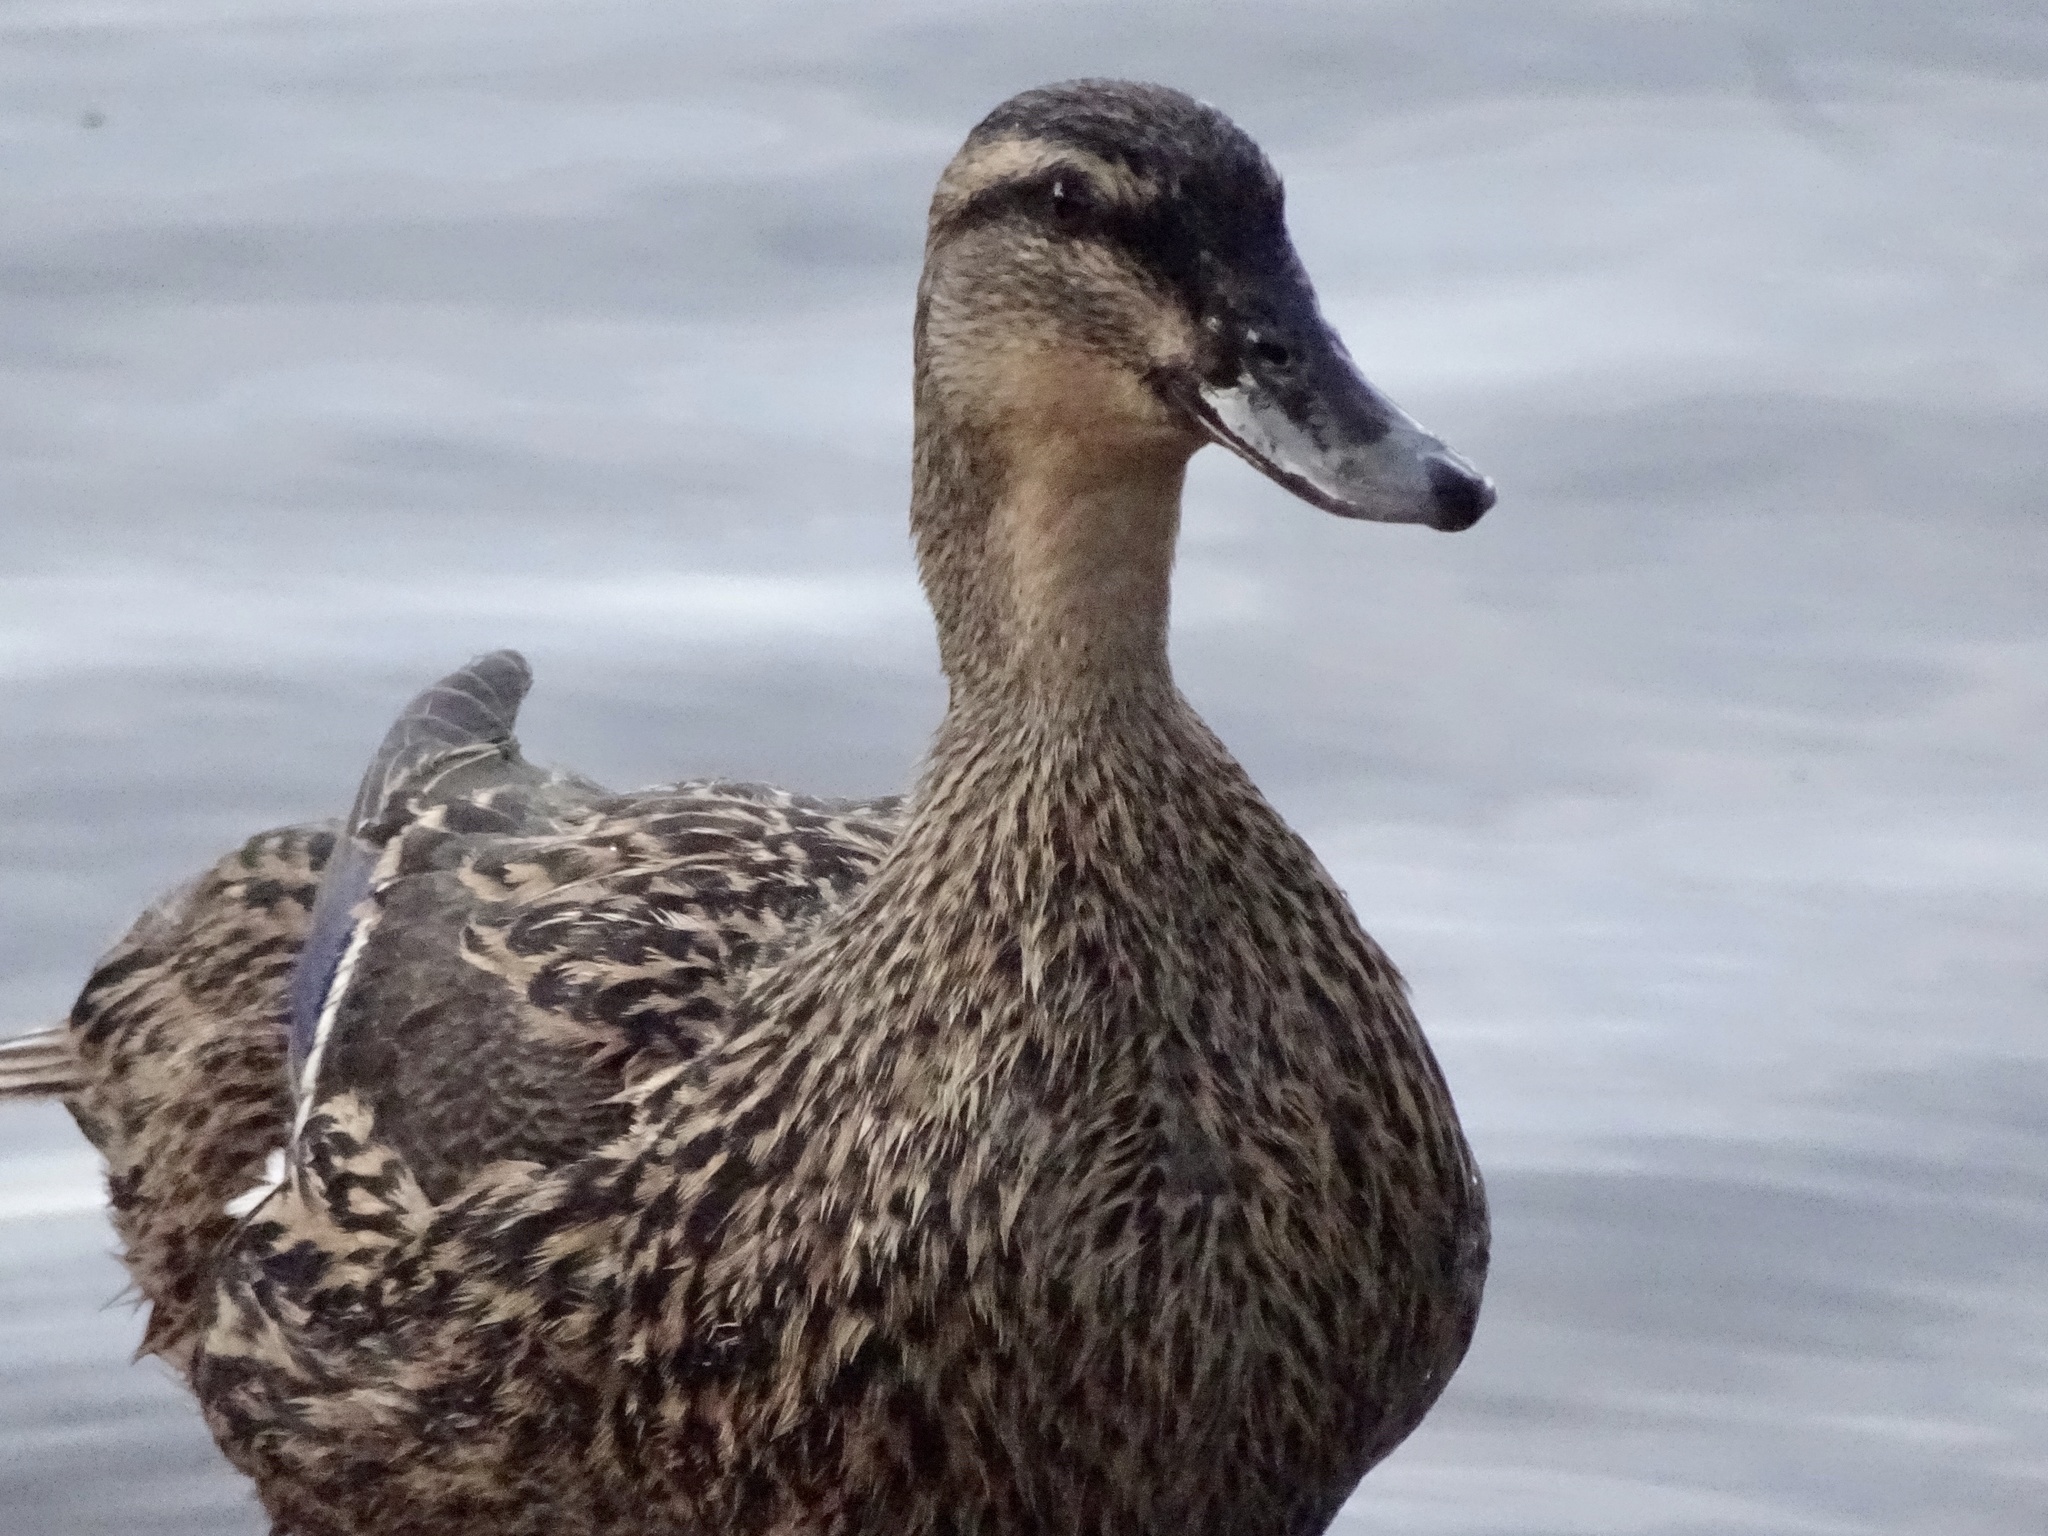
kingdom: Animalia
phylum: Chordata
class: Aves
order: Anseriformes
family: Anatidae
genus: Anas
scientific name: Anas platyrhynchos
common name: Mallard
